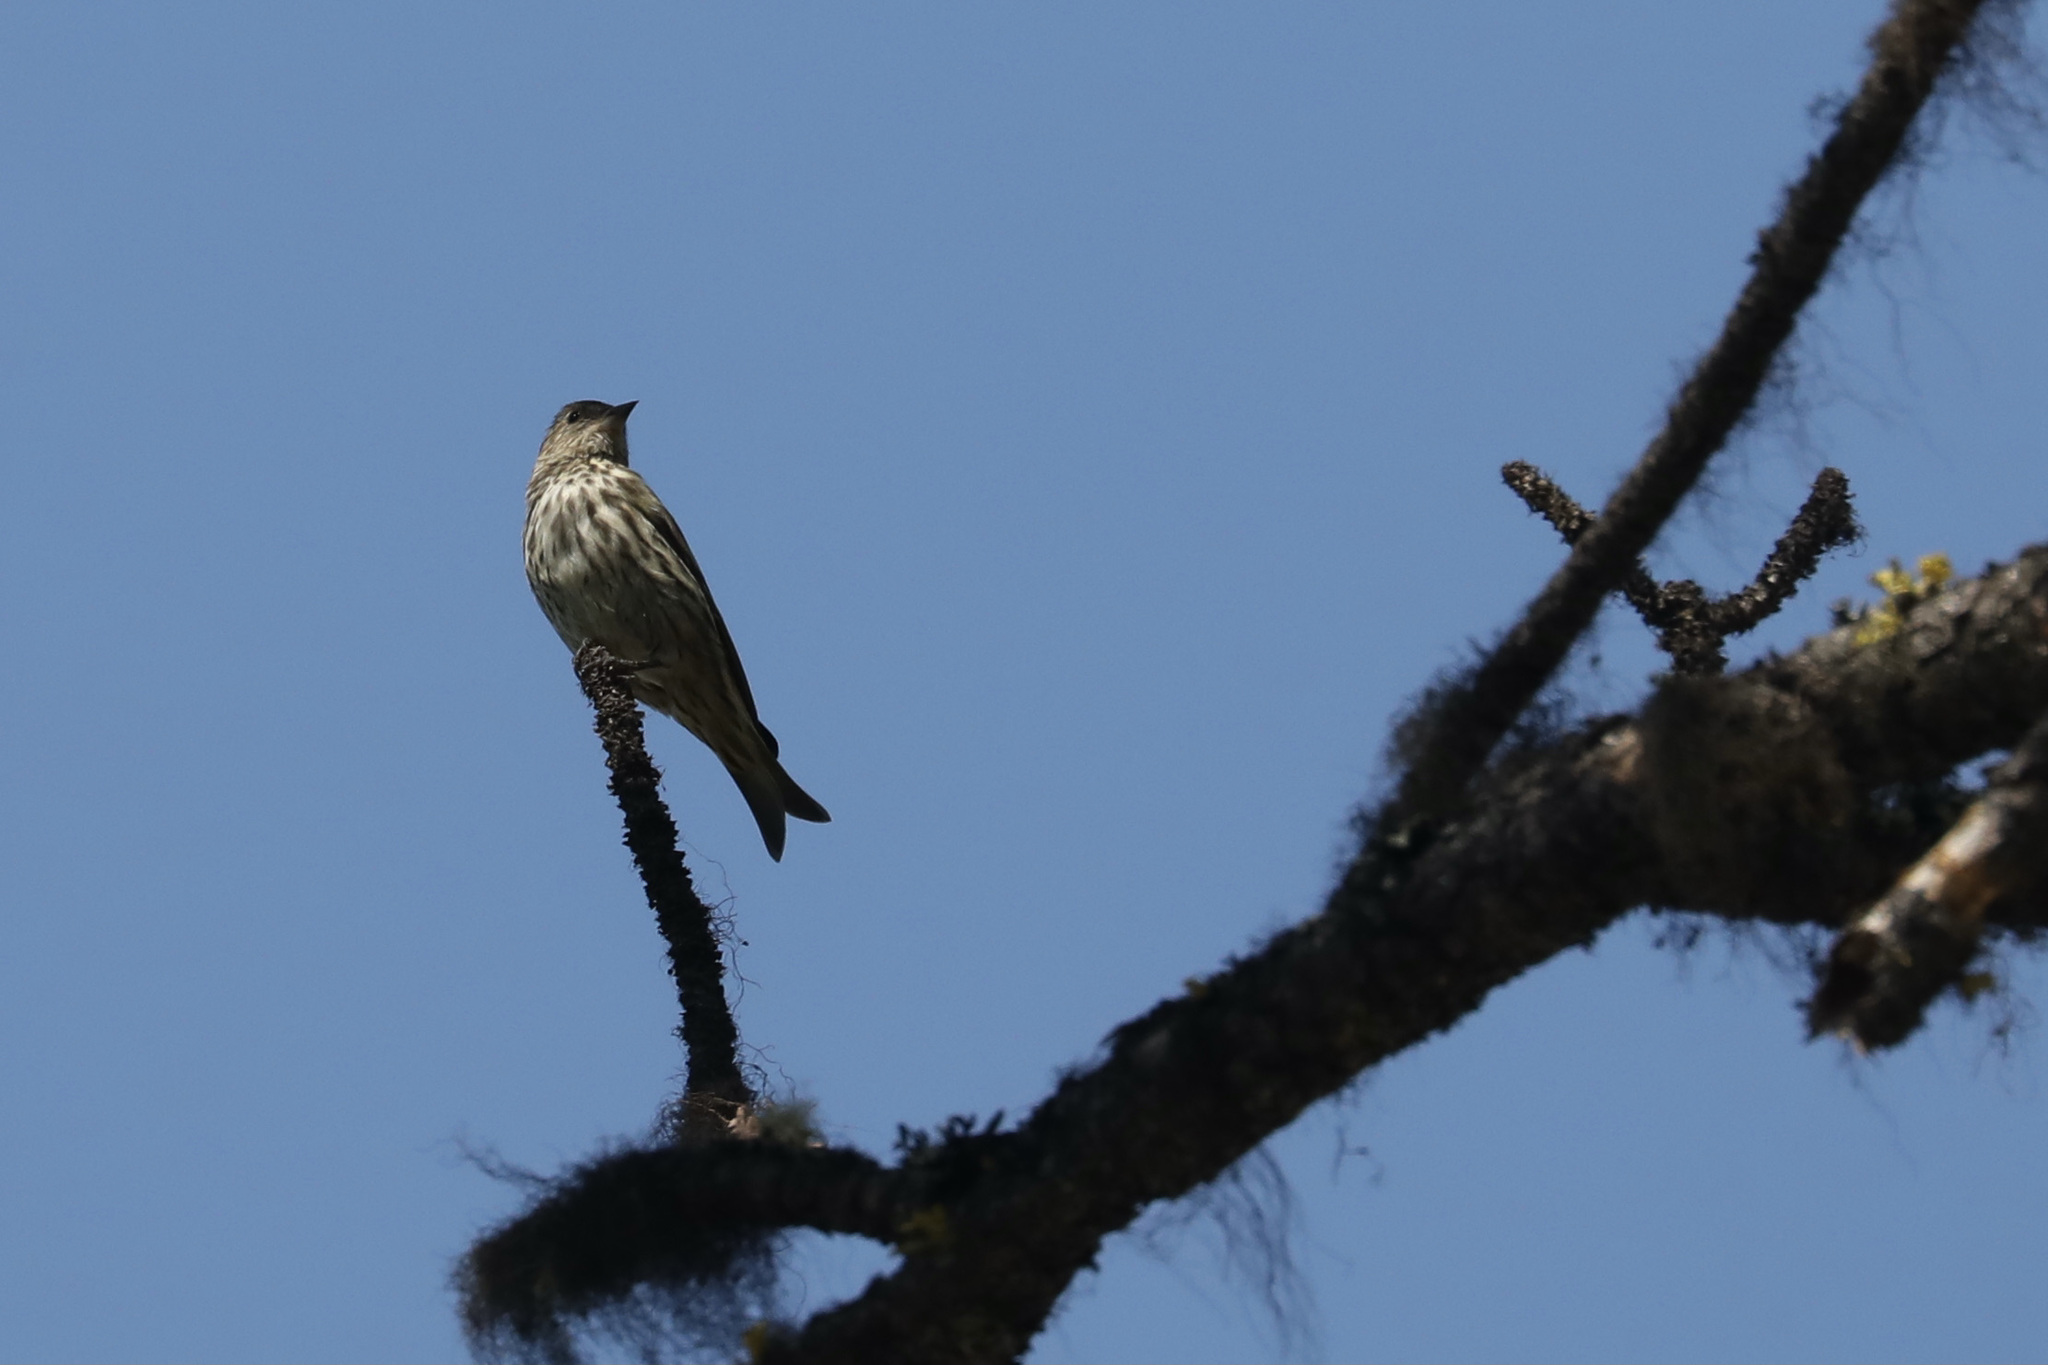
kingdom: Animalia
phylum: Chordata
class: Aves
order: Passeriformes
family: Fringillidae
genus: Spinus
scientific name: Spinus pinus
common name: Pine siskin
